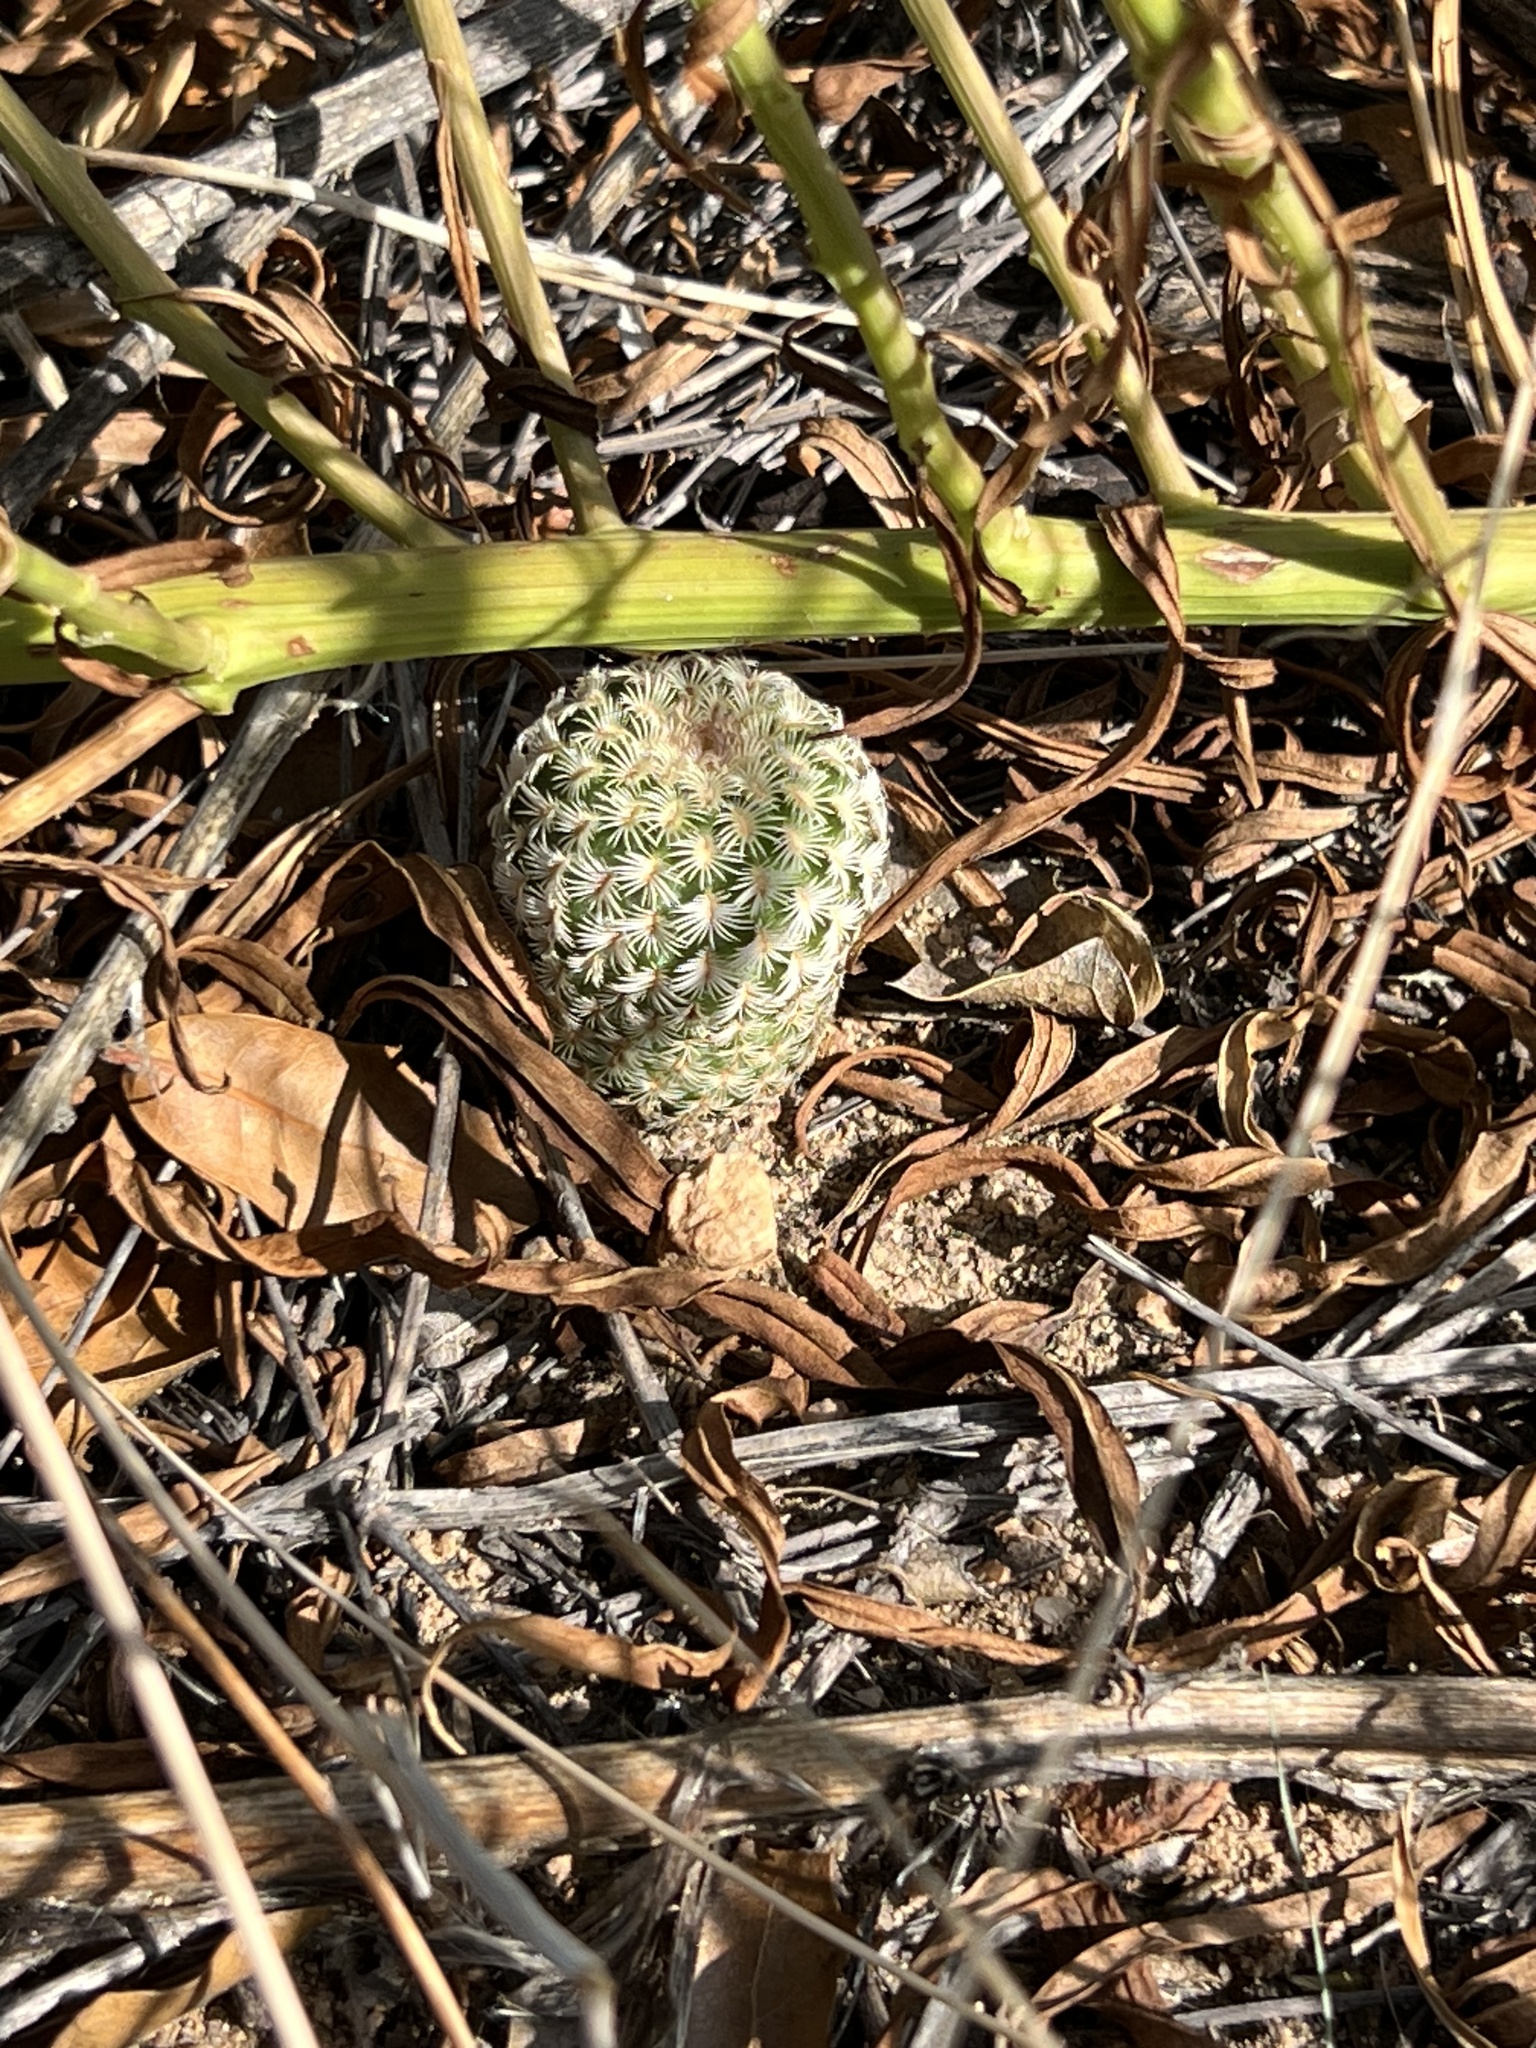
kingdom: Plantae
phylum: Tracheophyta
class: Magnoliopsida
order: Caryophyllales
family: Cactaceae
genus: Echinocereus
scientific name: Echinocereus rigidissimus
